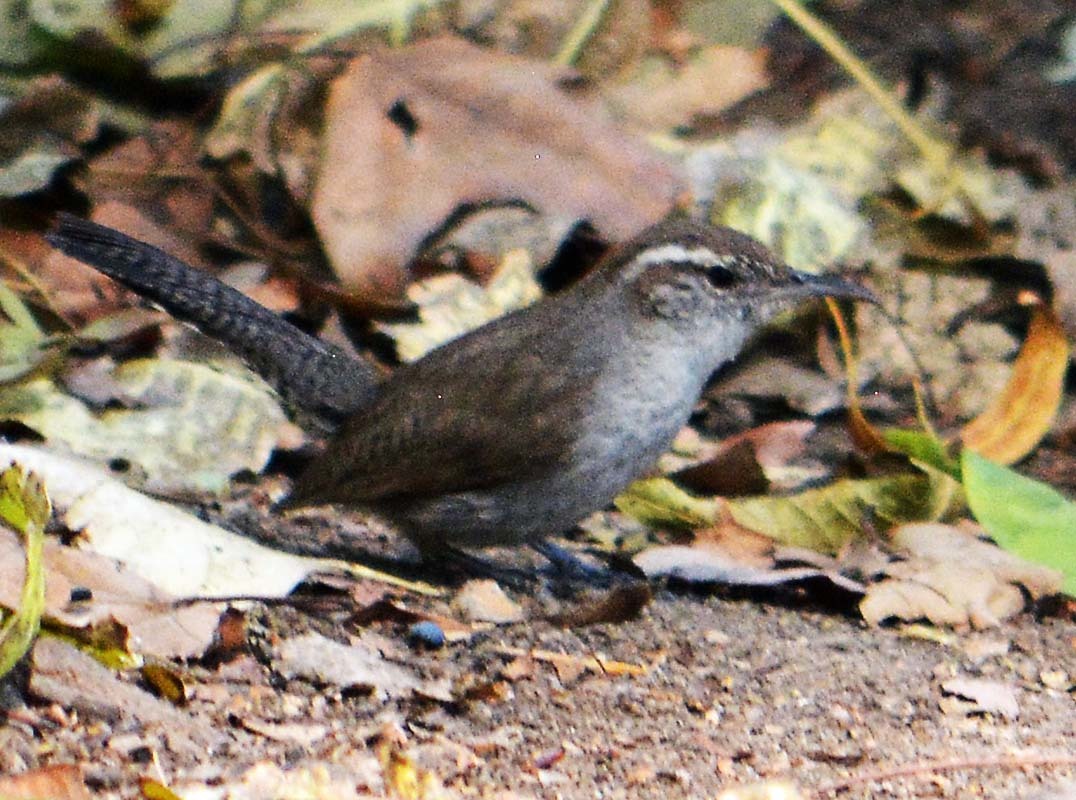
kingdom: Animalia
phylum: Chordata
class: Aves
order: Passeriformes
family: Troglodytidae
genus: Thryomanes
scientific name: Thryomanes bewickii
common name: Bewick's wren
